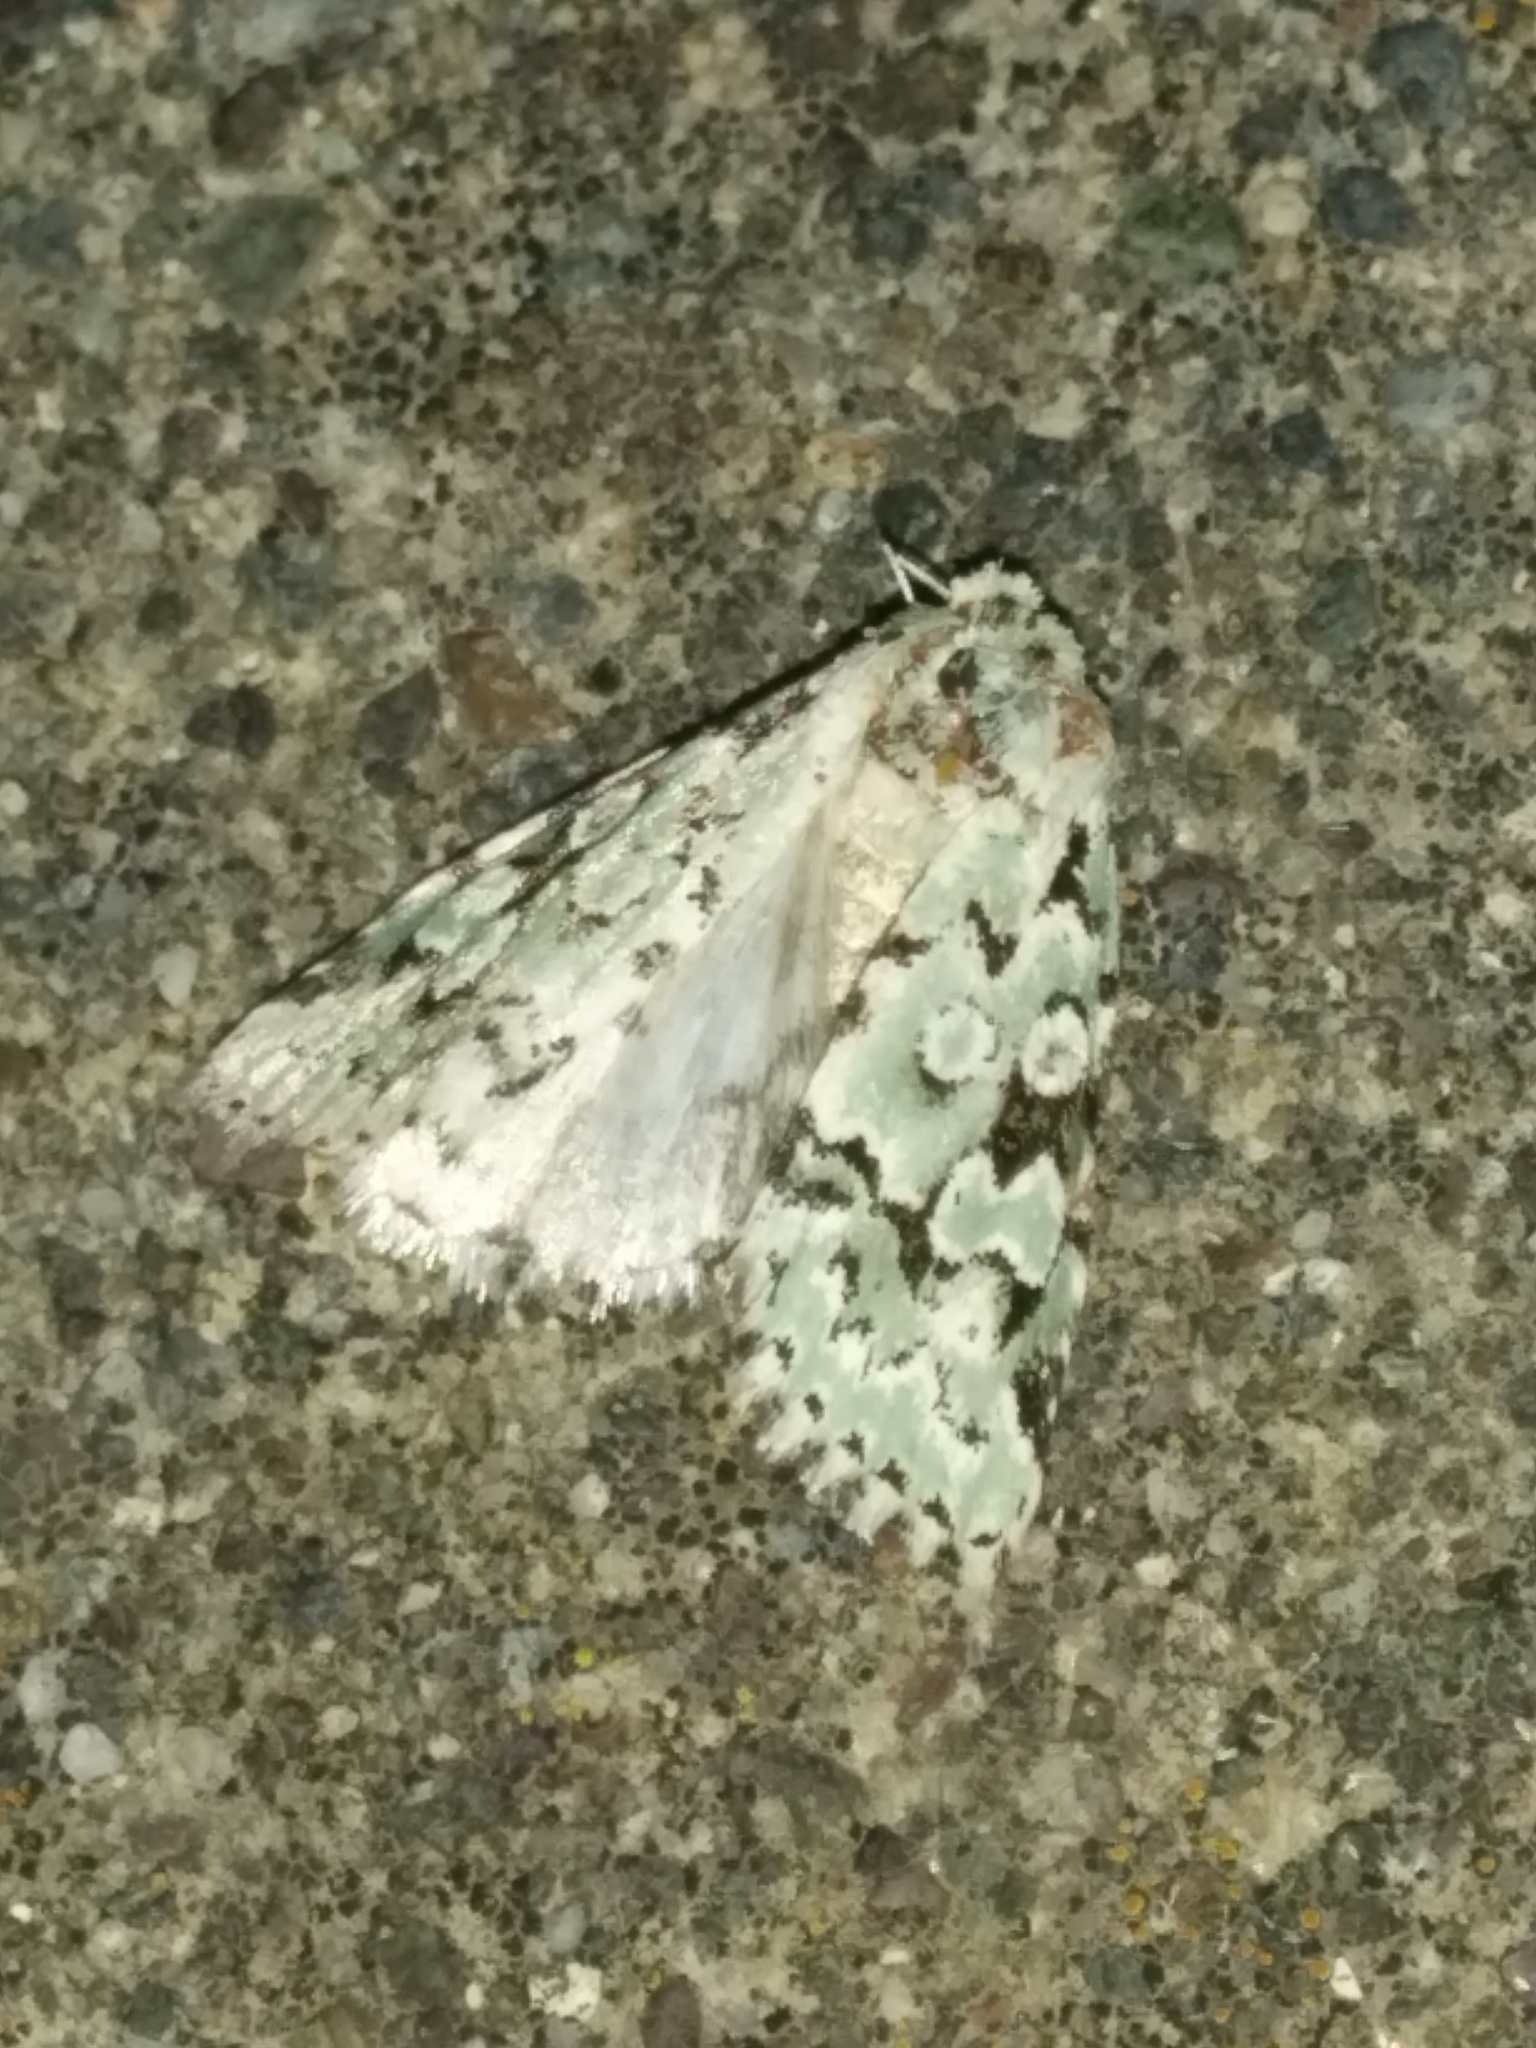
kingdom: Animalia
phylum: Arthropoda
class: Insecta
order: Lepidoptera
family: Noctuidae
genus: Bryolymnia
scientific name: Bryolymnia viridata
